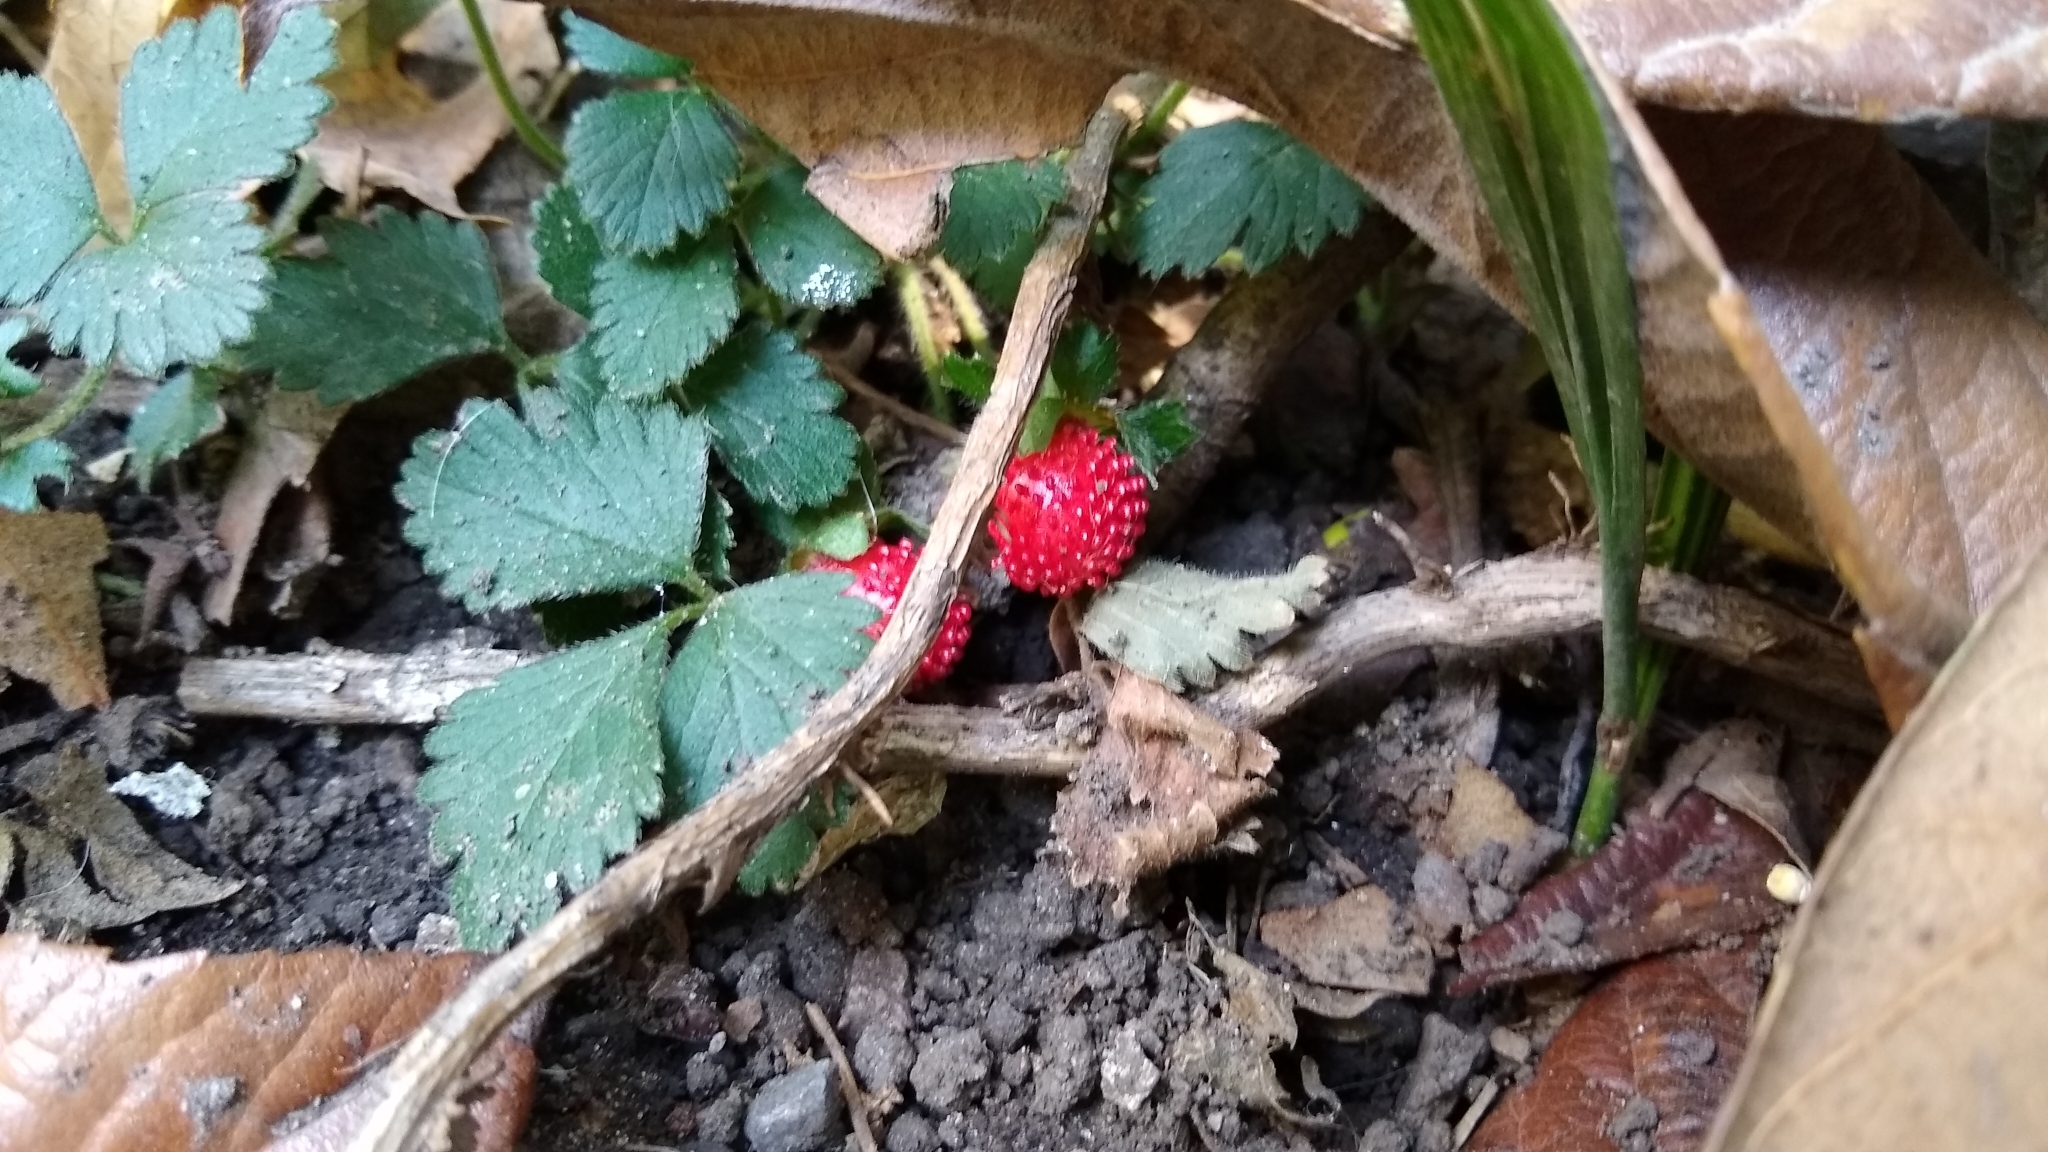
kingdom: Plantae
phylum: Tracheophyta
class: Magnoliopsida
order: Rosales
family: Rosaceae
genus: Potentilla
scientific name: Potentilla indica
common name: Yellow-flowered strawberry
